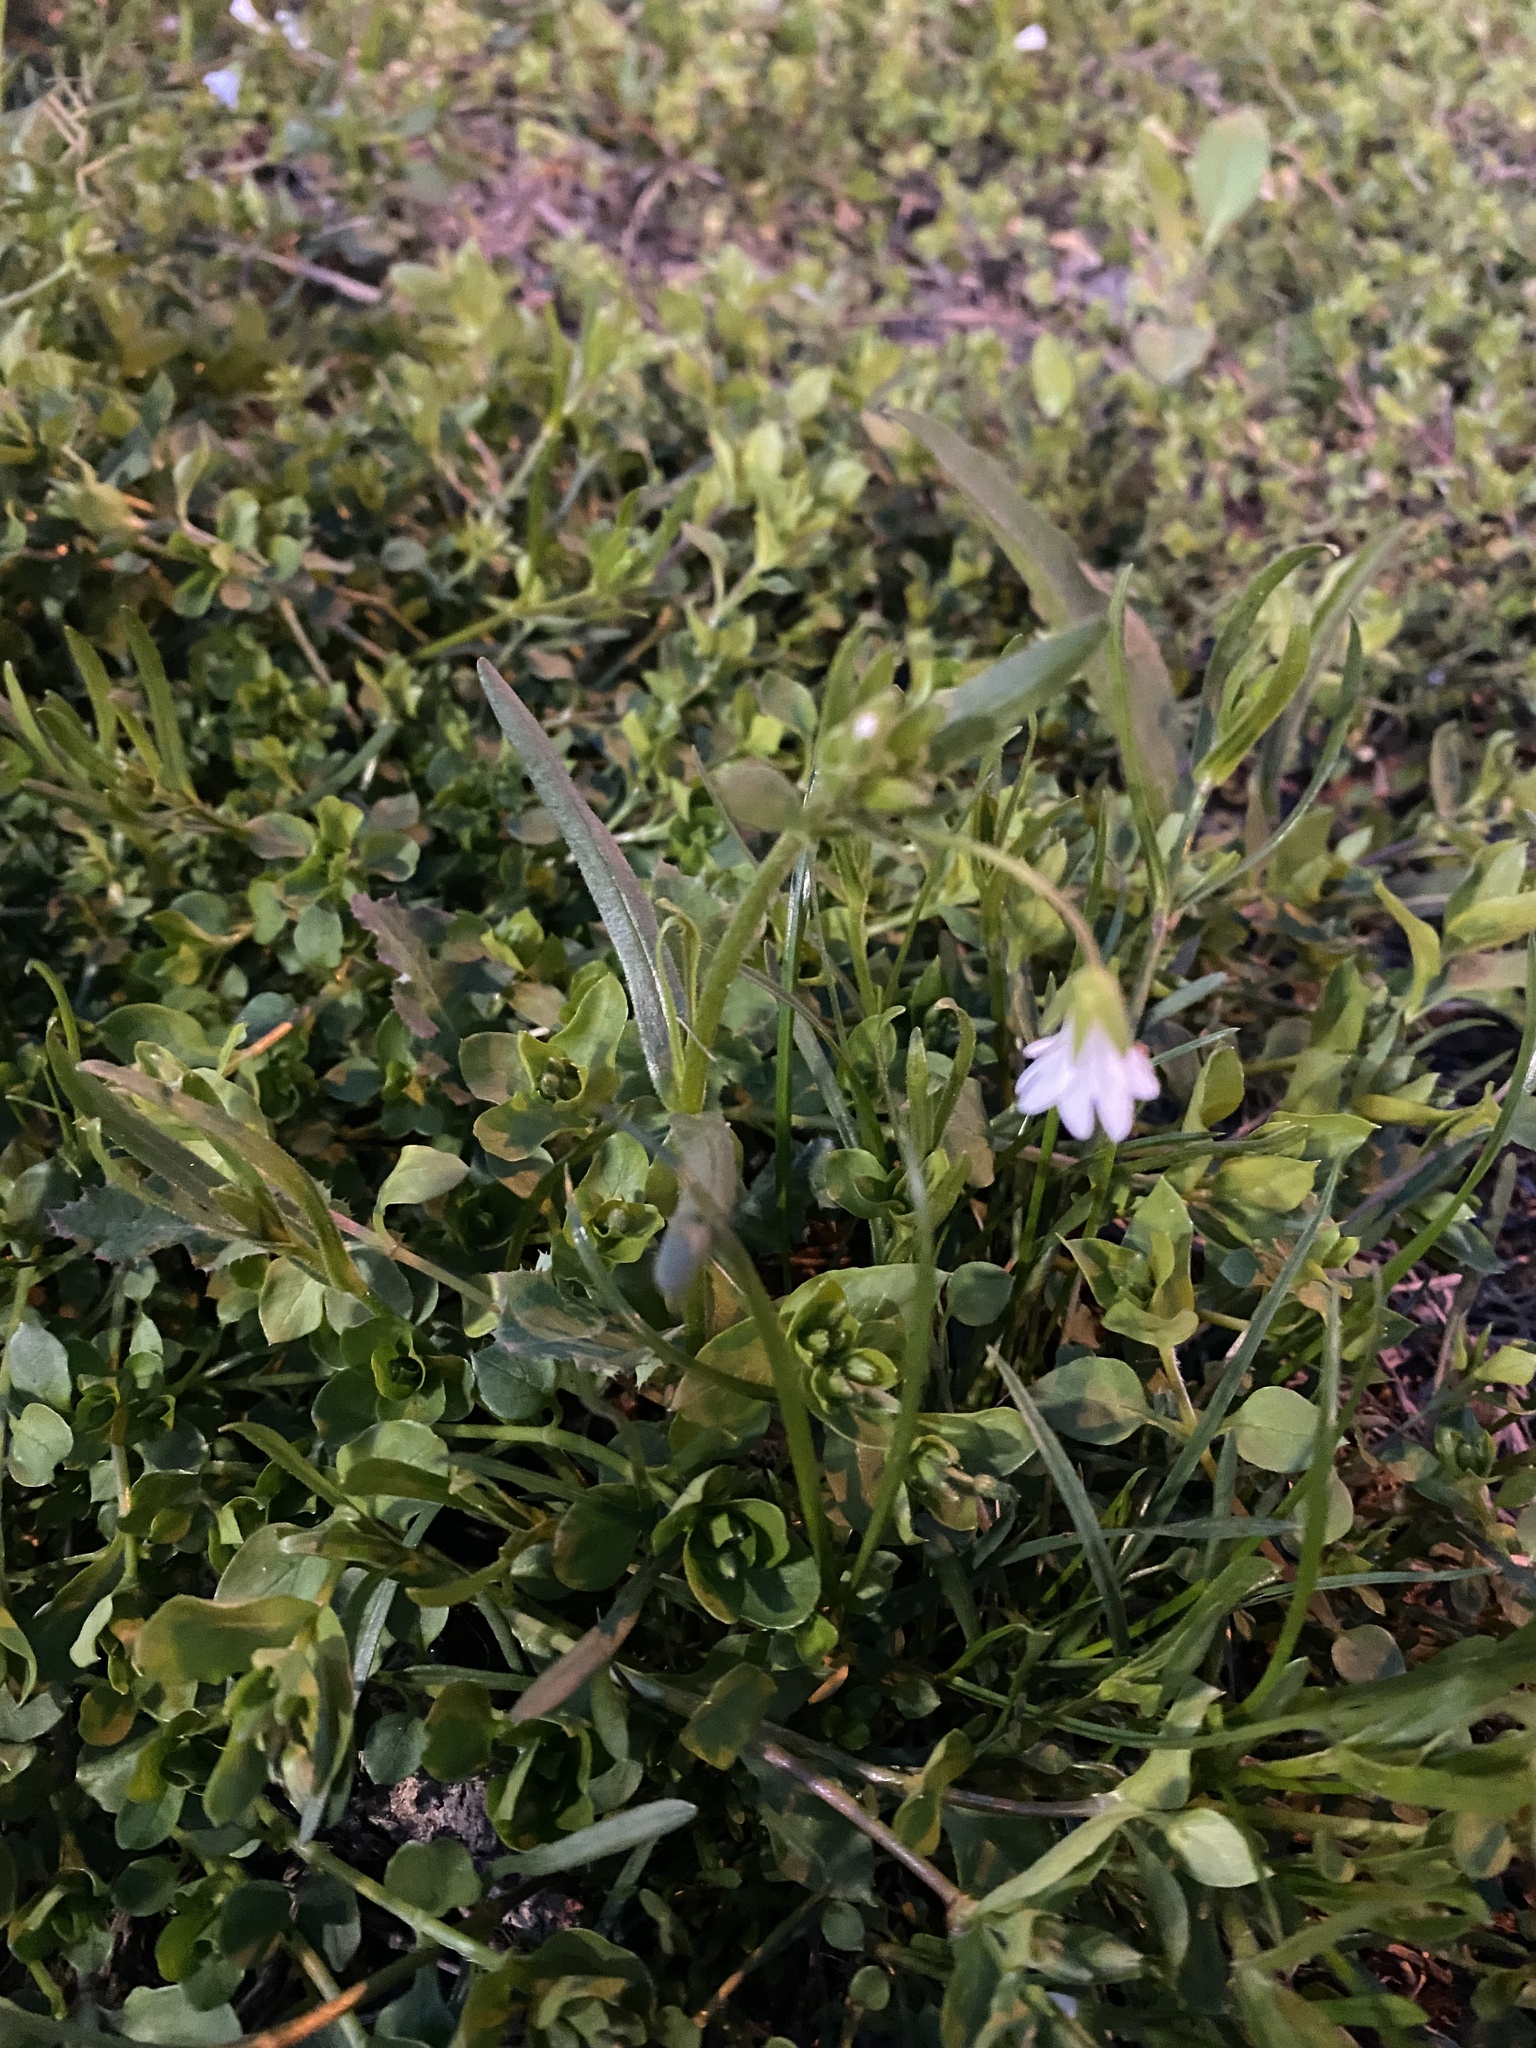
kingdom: Plantae
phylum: Tracheophyta
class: Magnoliopsida
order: Caryophyllales
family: Caryophyllaceae
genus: Dichodon
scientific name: Dichodon viscidum
